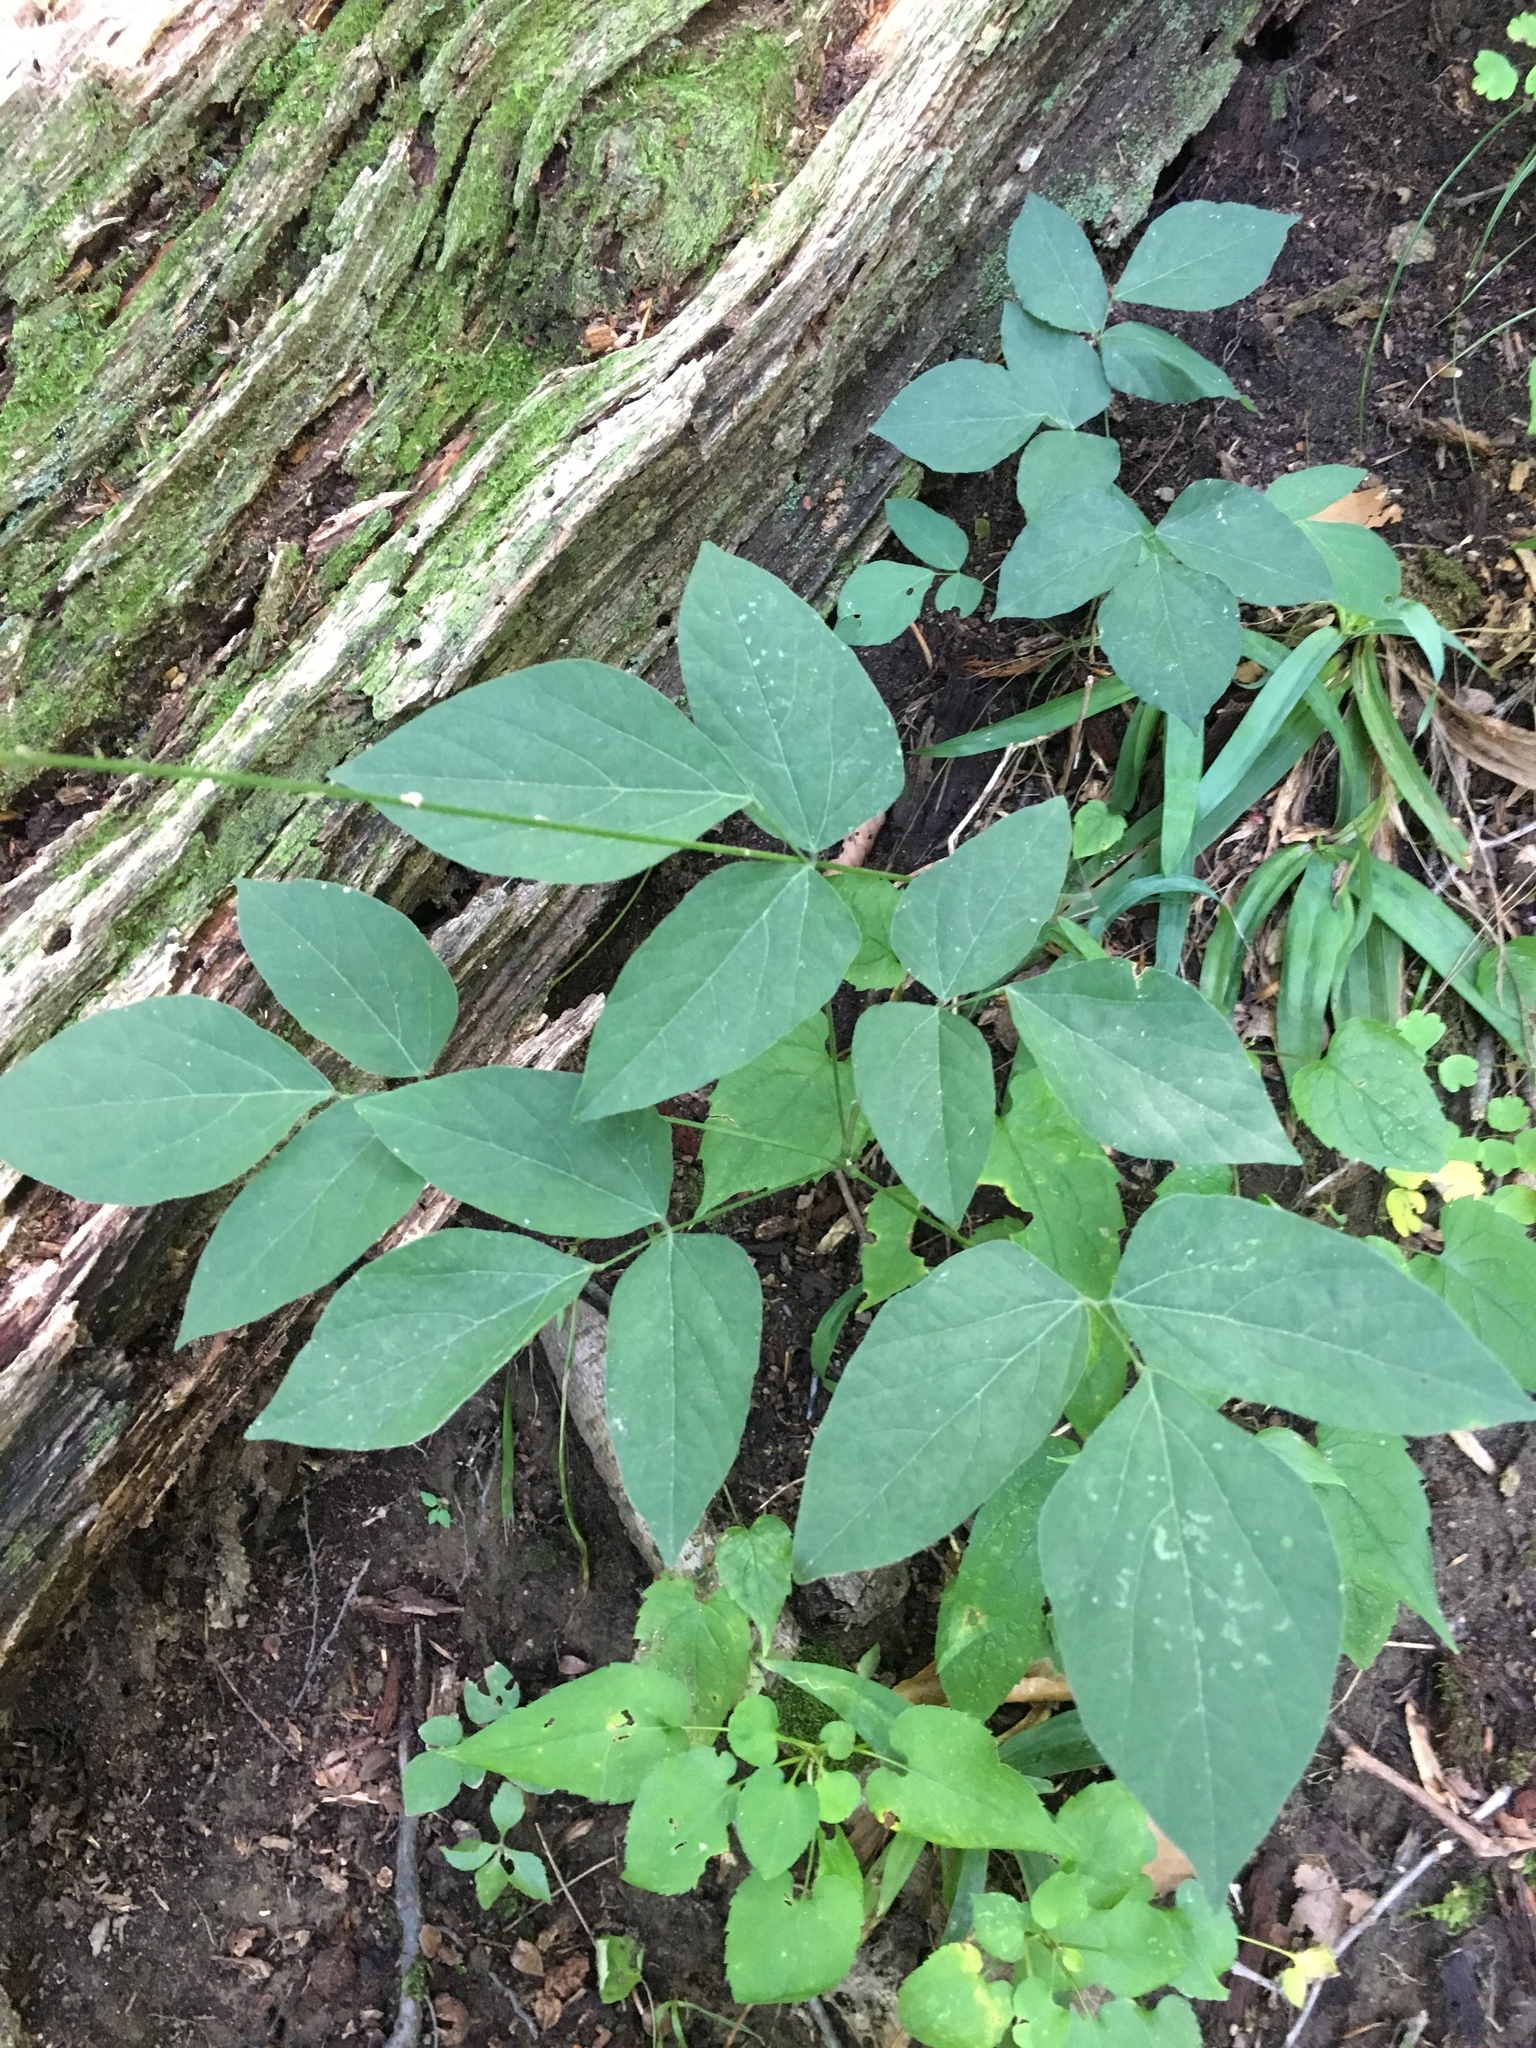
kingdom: Plantae
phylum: Tracheophyta
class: Magnoliopsida
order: Fabales
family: Fabaceae
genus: Hylodesmum
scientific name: Hylodesmum nudiflorum
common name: Bare-stemmed tick-trefoil
